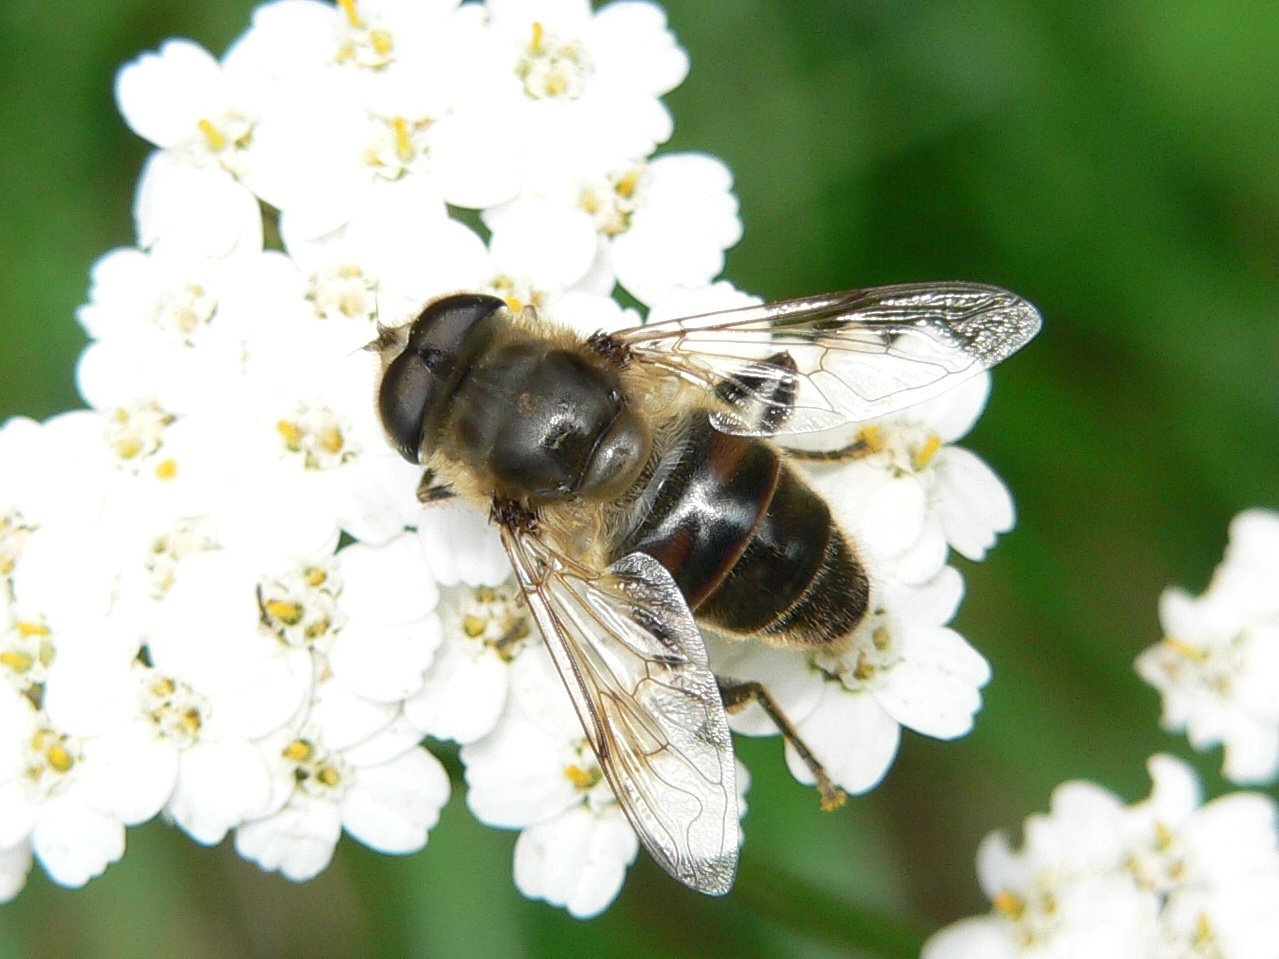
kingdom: Animalia
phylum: Arthropoda
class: Insecta
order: Diptera
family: Syrphidae
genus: Eristalis
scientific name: Eristalis tenax
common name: Drone fly
